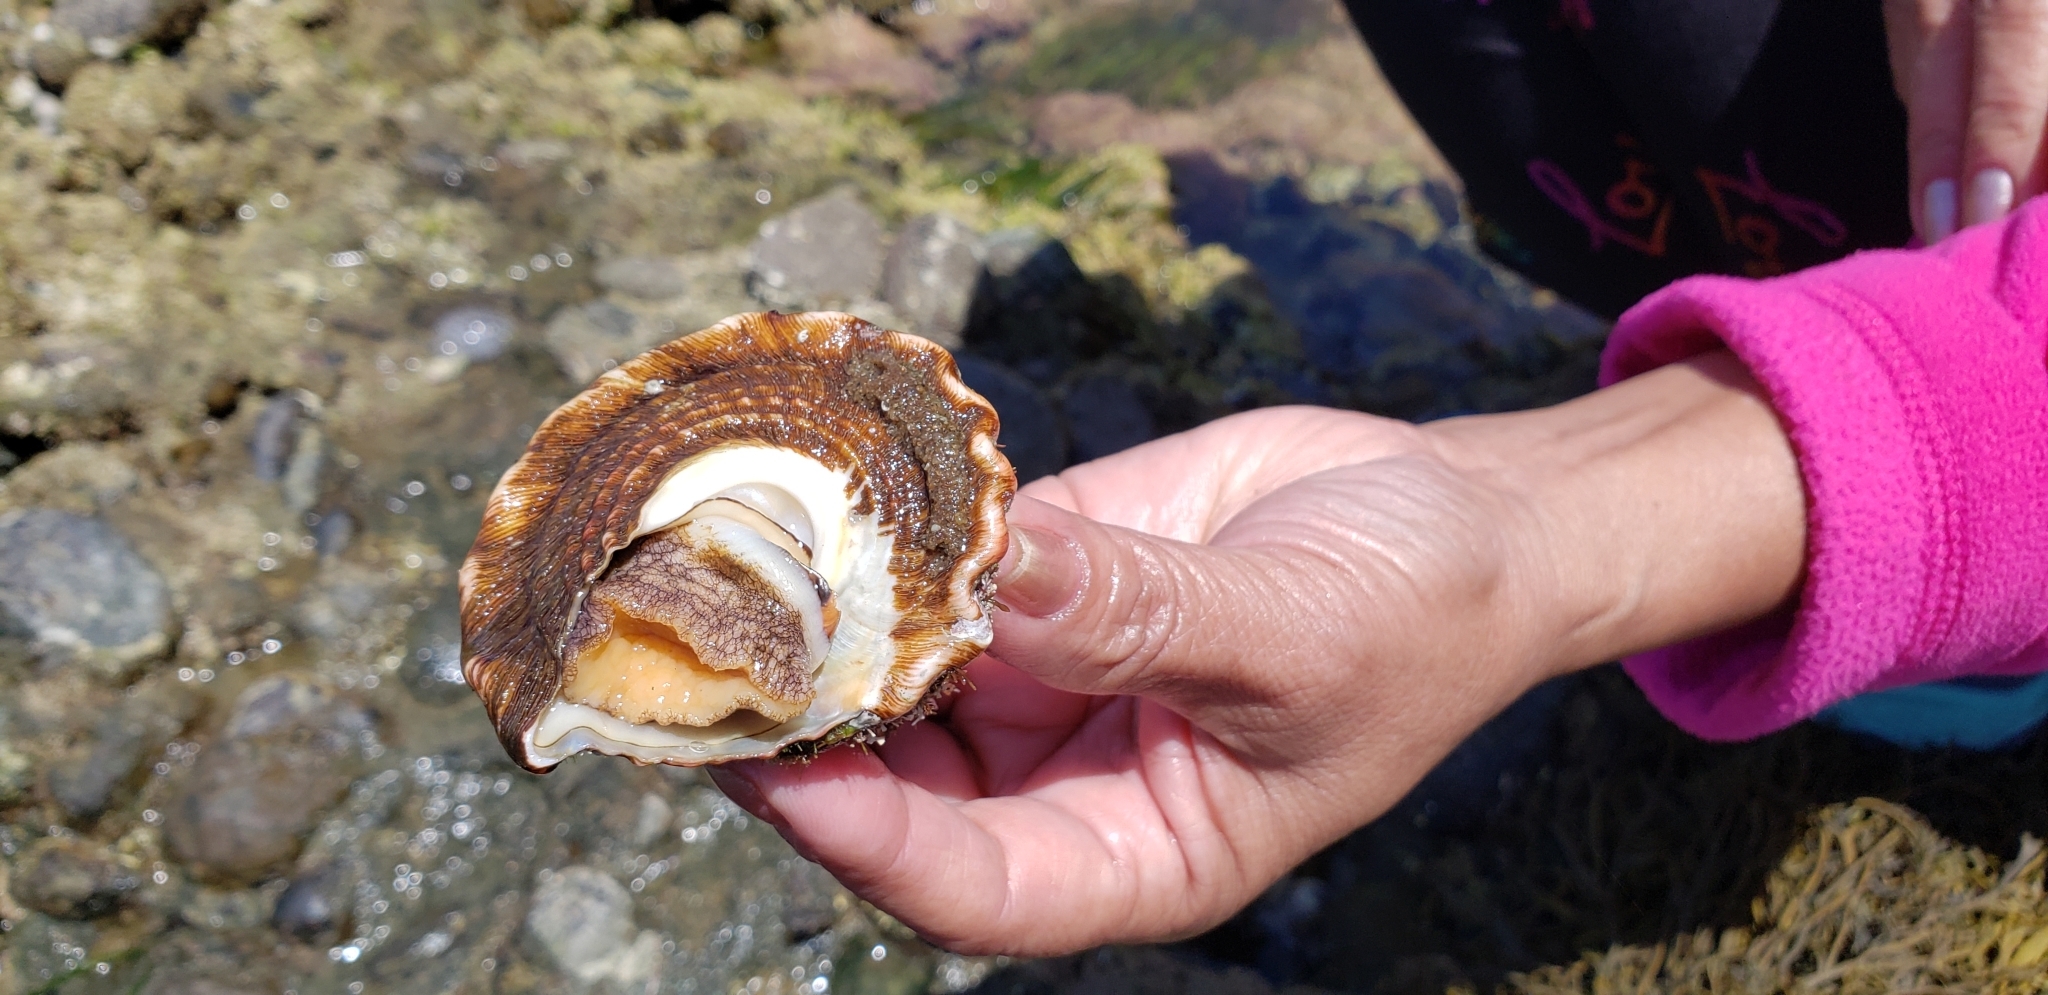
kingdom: Animalia
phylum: Mollusca
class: Gastropoda
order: Trochida
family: Turbinidae
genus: Megastraea
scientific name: Megastraea undosa
